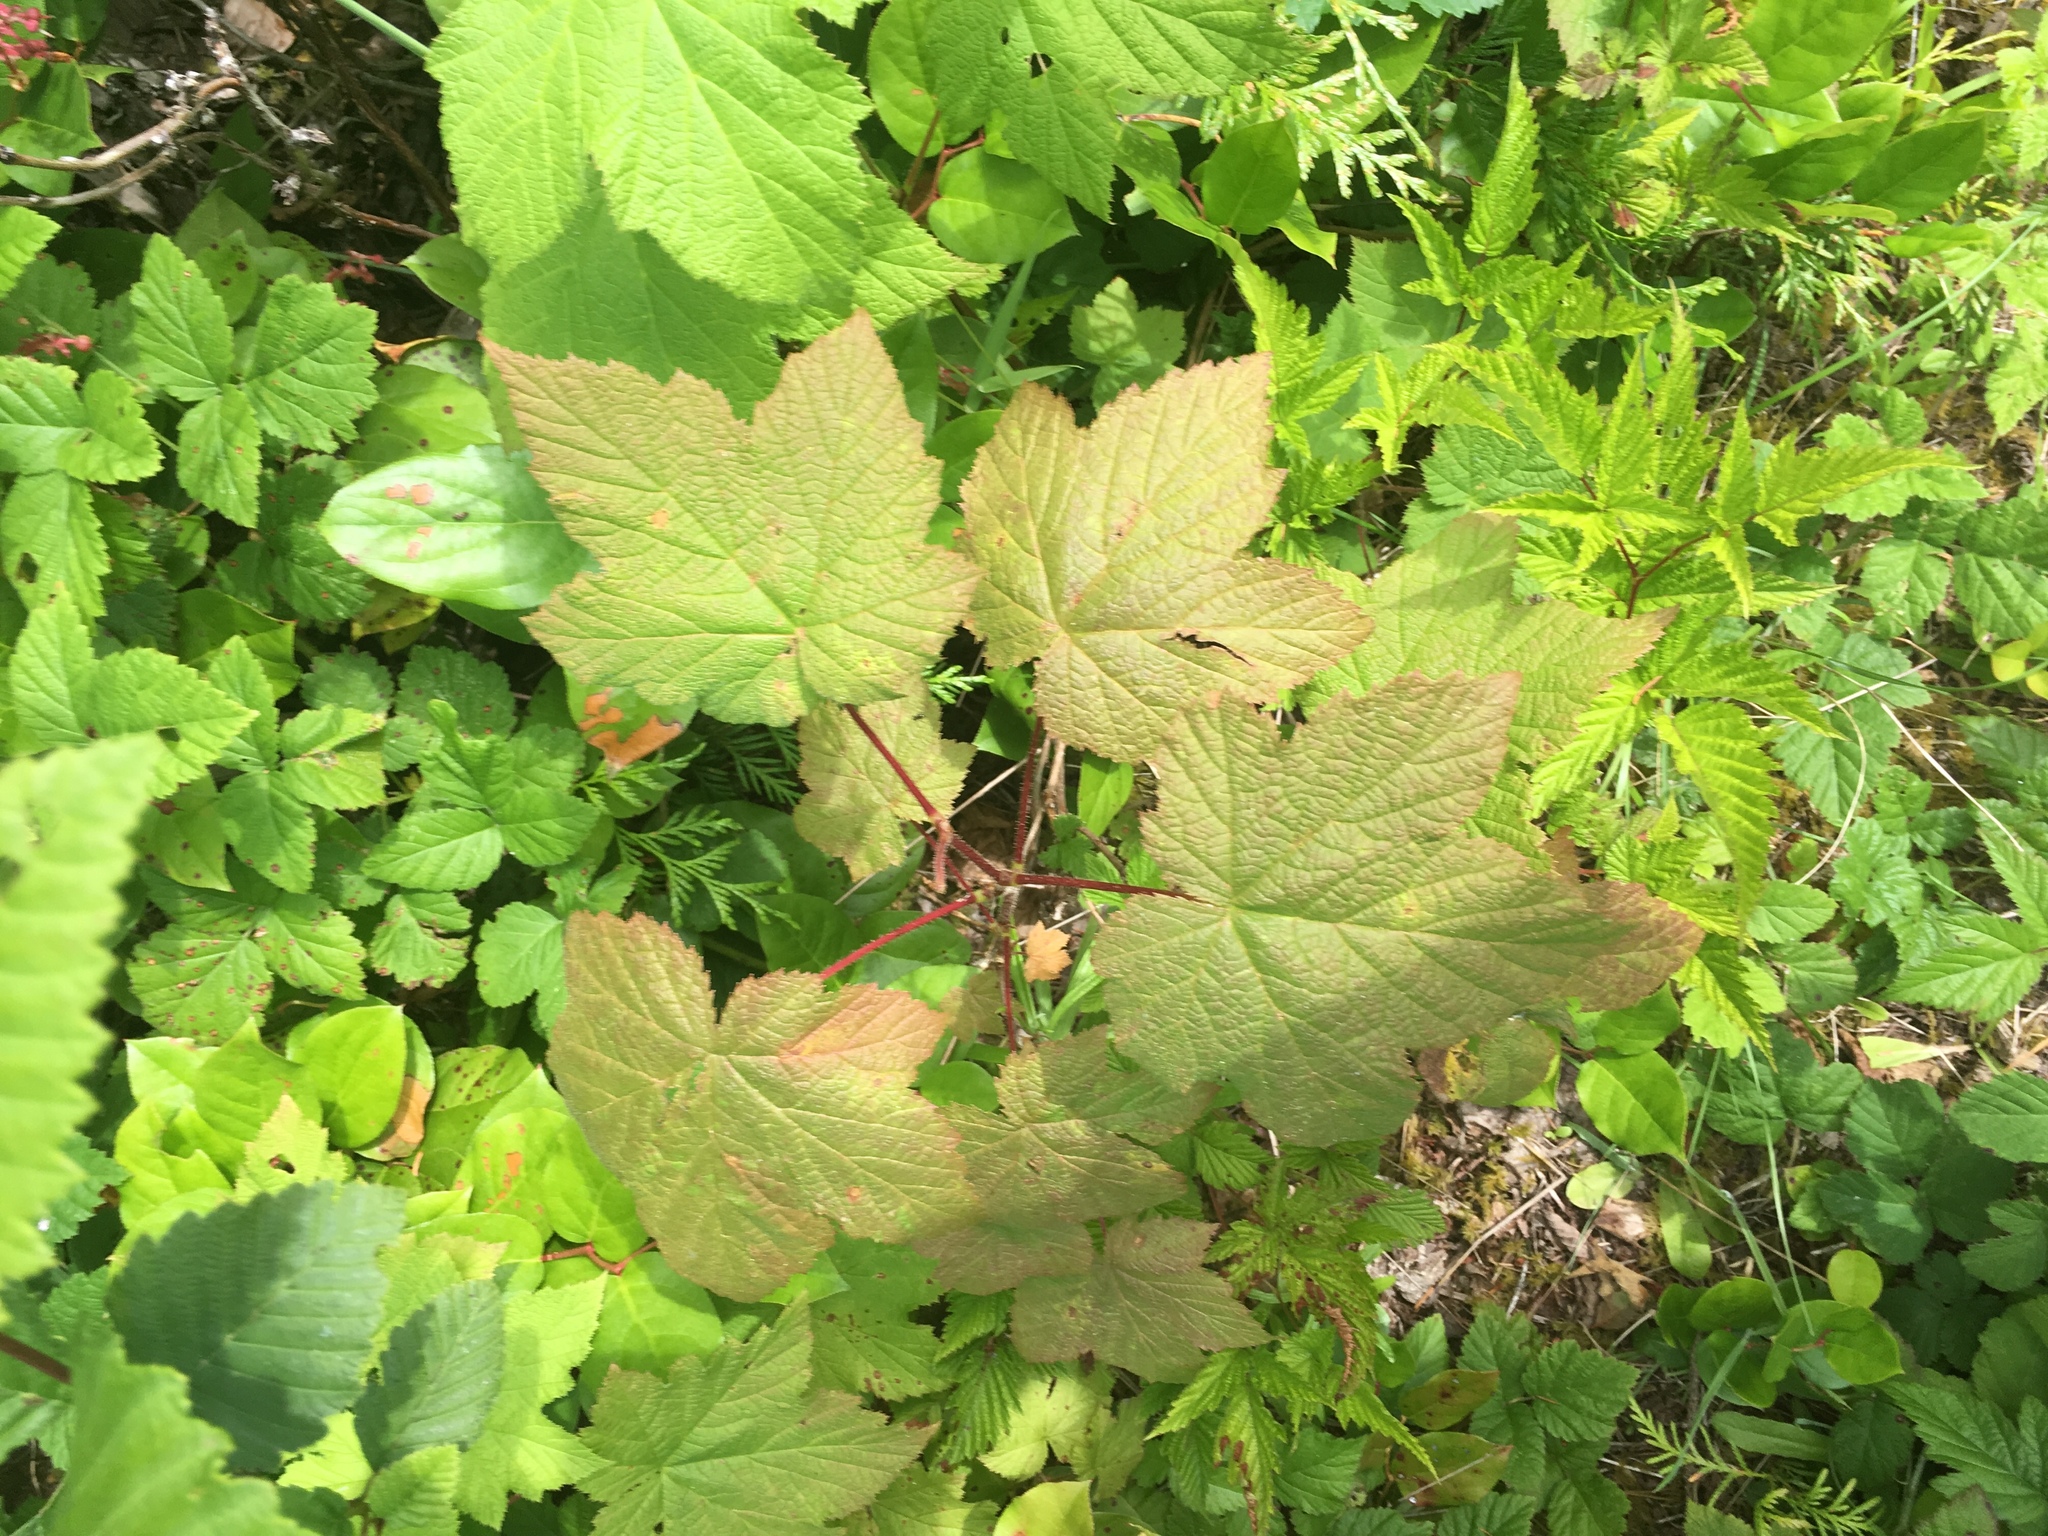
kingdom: Plantae
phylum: Tracheophyta
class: Magnoliopsida
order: Rosales
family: Rosaceae
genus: Rubus
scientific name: Rubus parviflorus
